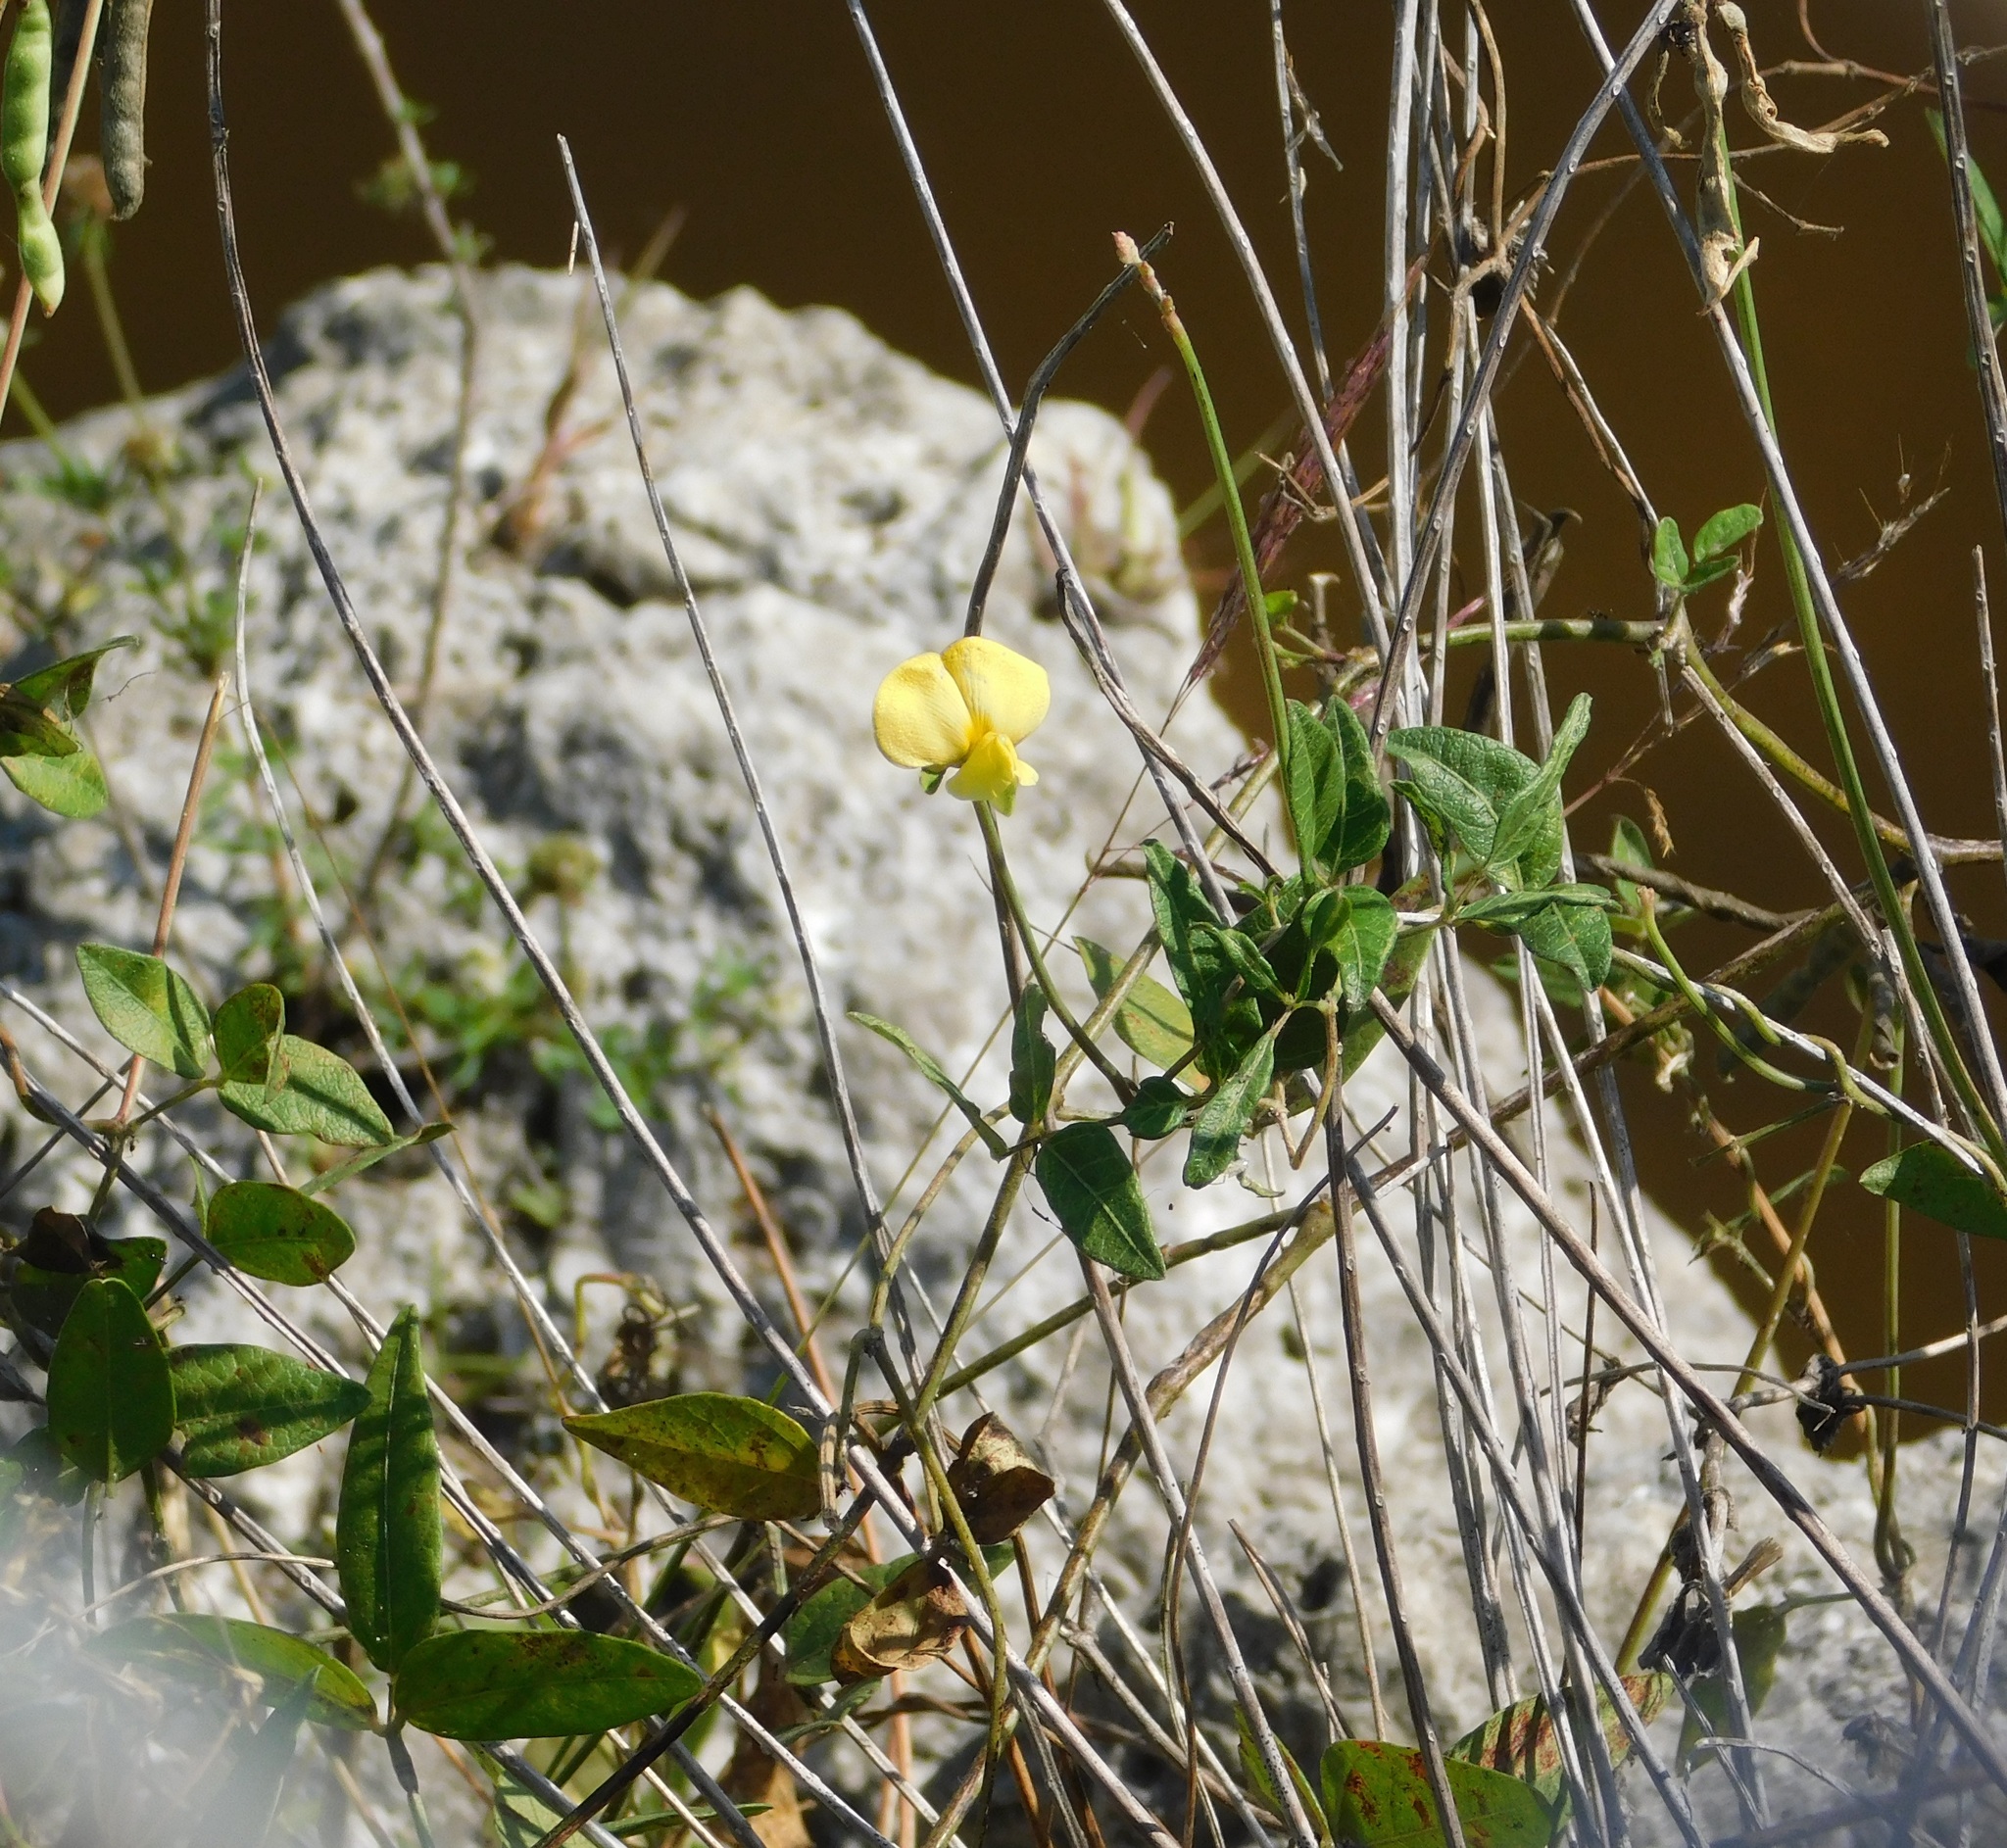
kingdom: Plantae
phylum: Tracheophyta
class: Magnoliopsida
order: Fabales
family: Fabaceae
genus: Vigna
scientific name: Vigna luteola
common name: Hairypod cowpea
